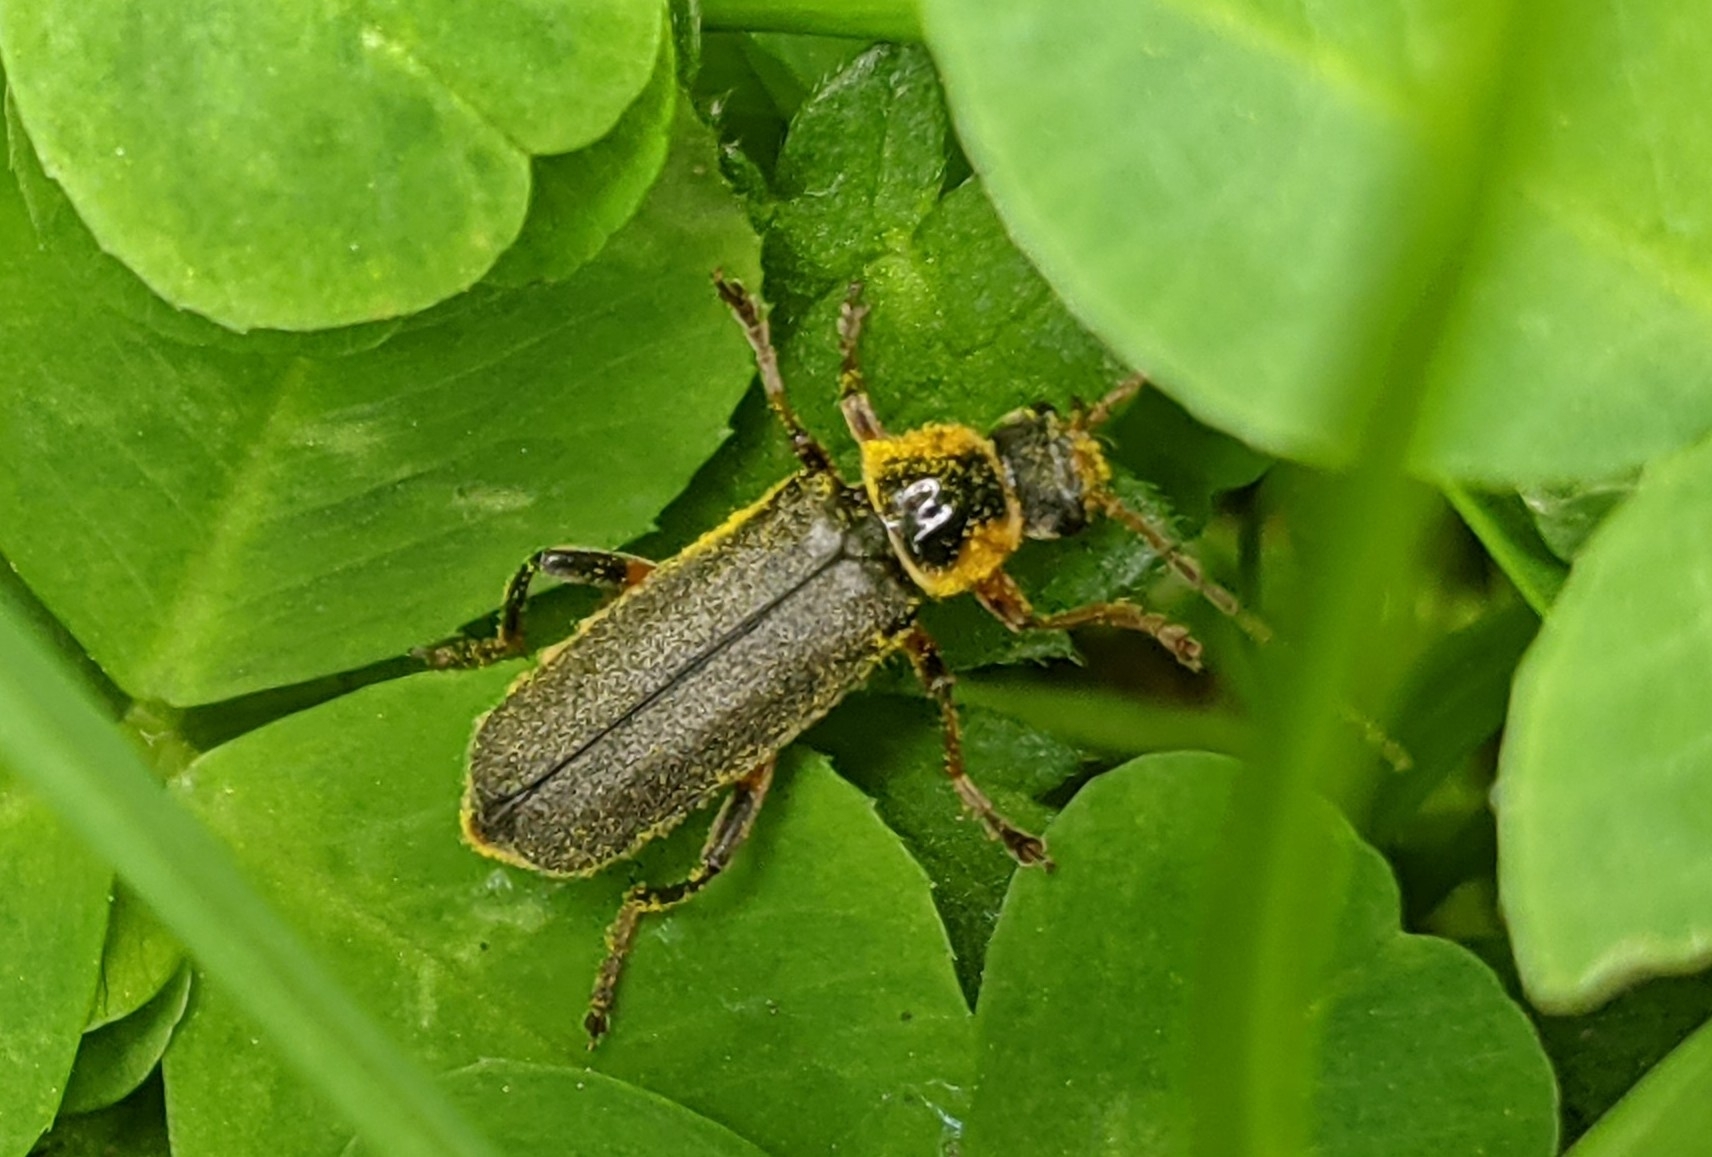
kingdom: Animalia
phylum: Arthropoda
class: Insecta
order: Coleoptera
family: Cantharidae
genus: Cantharis
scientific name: Cantharis nigricans
